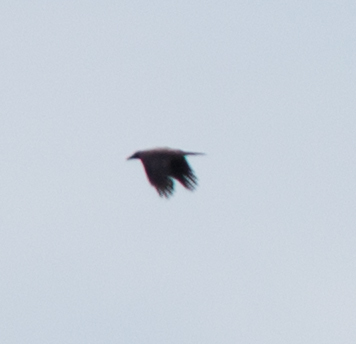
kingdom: Animalia
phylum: Chordata
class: Aves
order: Passeriformes
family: Corvidae
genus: Corvus
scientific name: Corvus cornix
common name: Hooded crow
